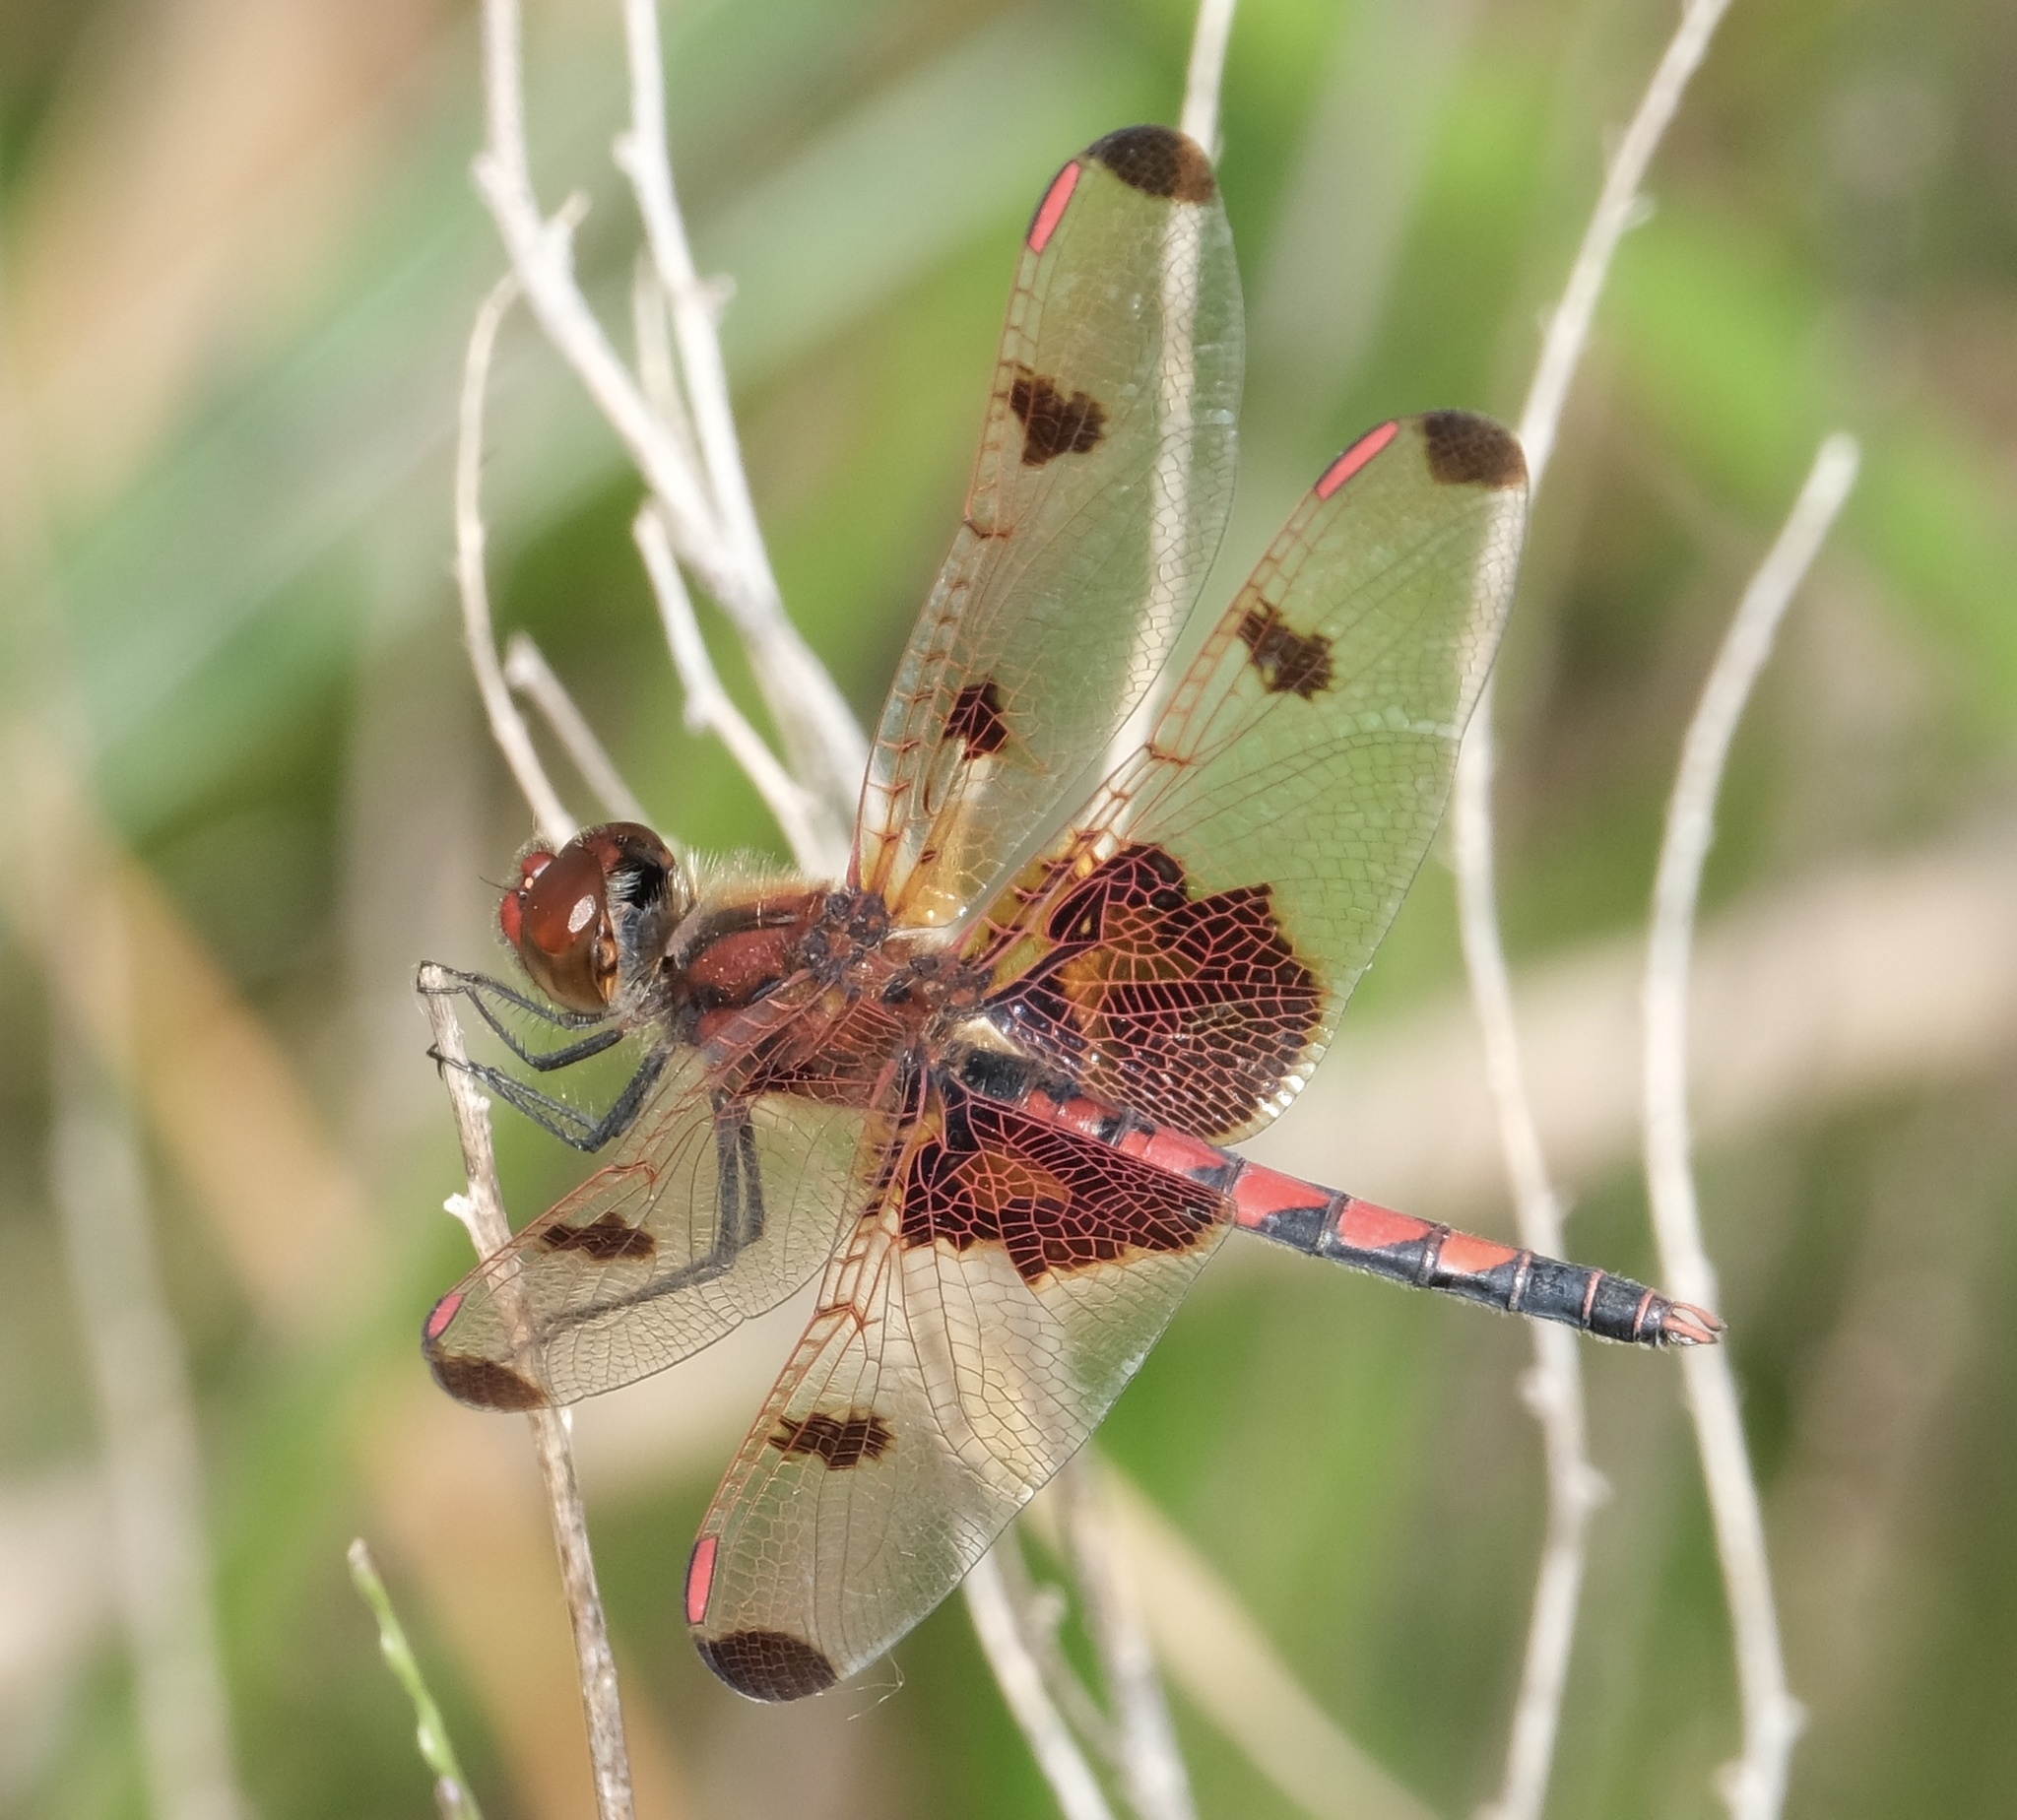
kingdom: Animalia
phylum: Arthropoda
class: Insecta
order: Odonata
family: Libellulidae
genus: Celithemis
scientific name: Celithemis elisa
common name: Calico pennant
